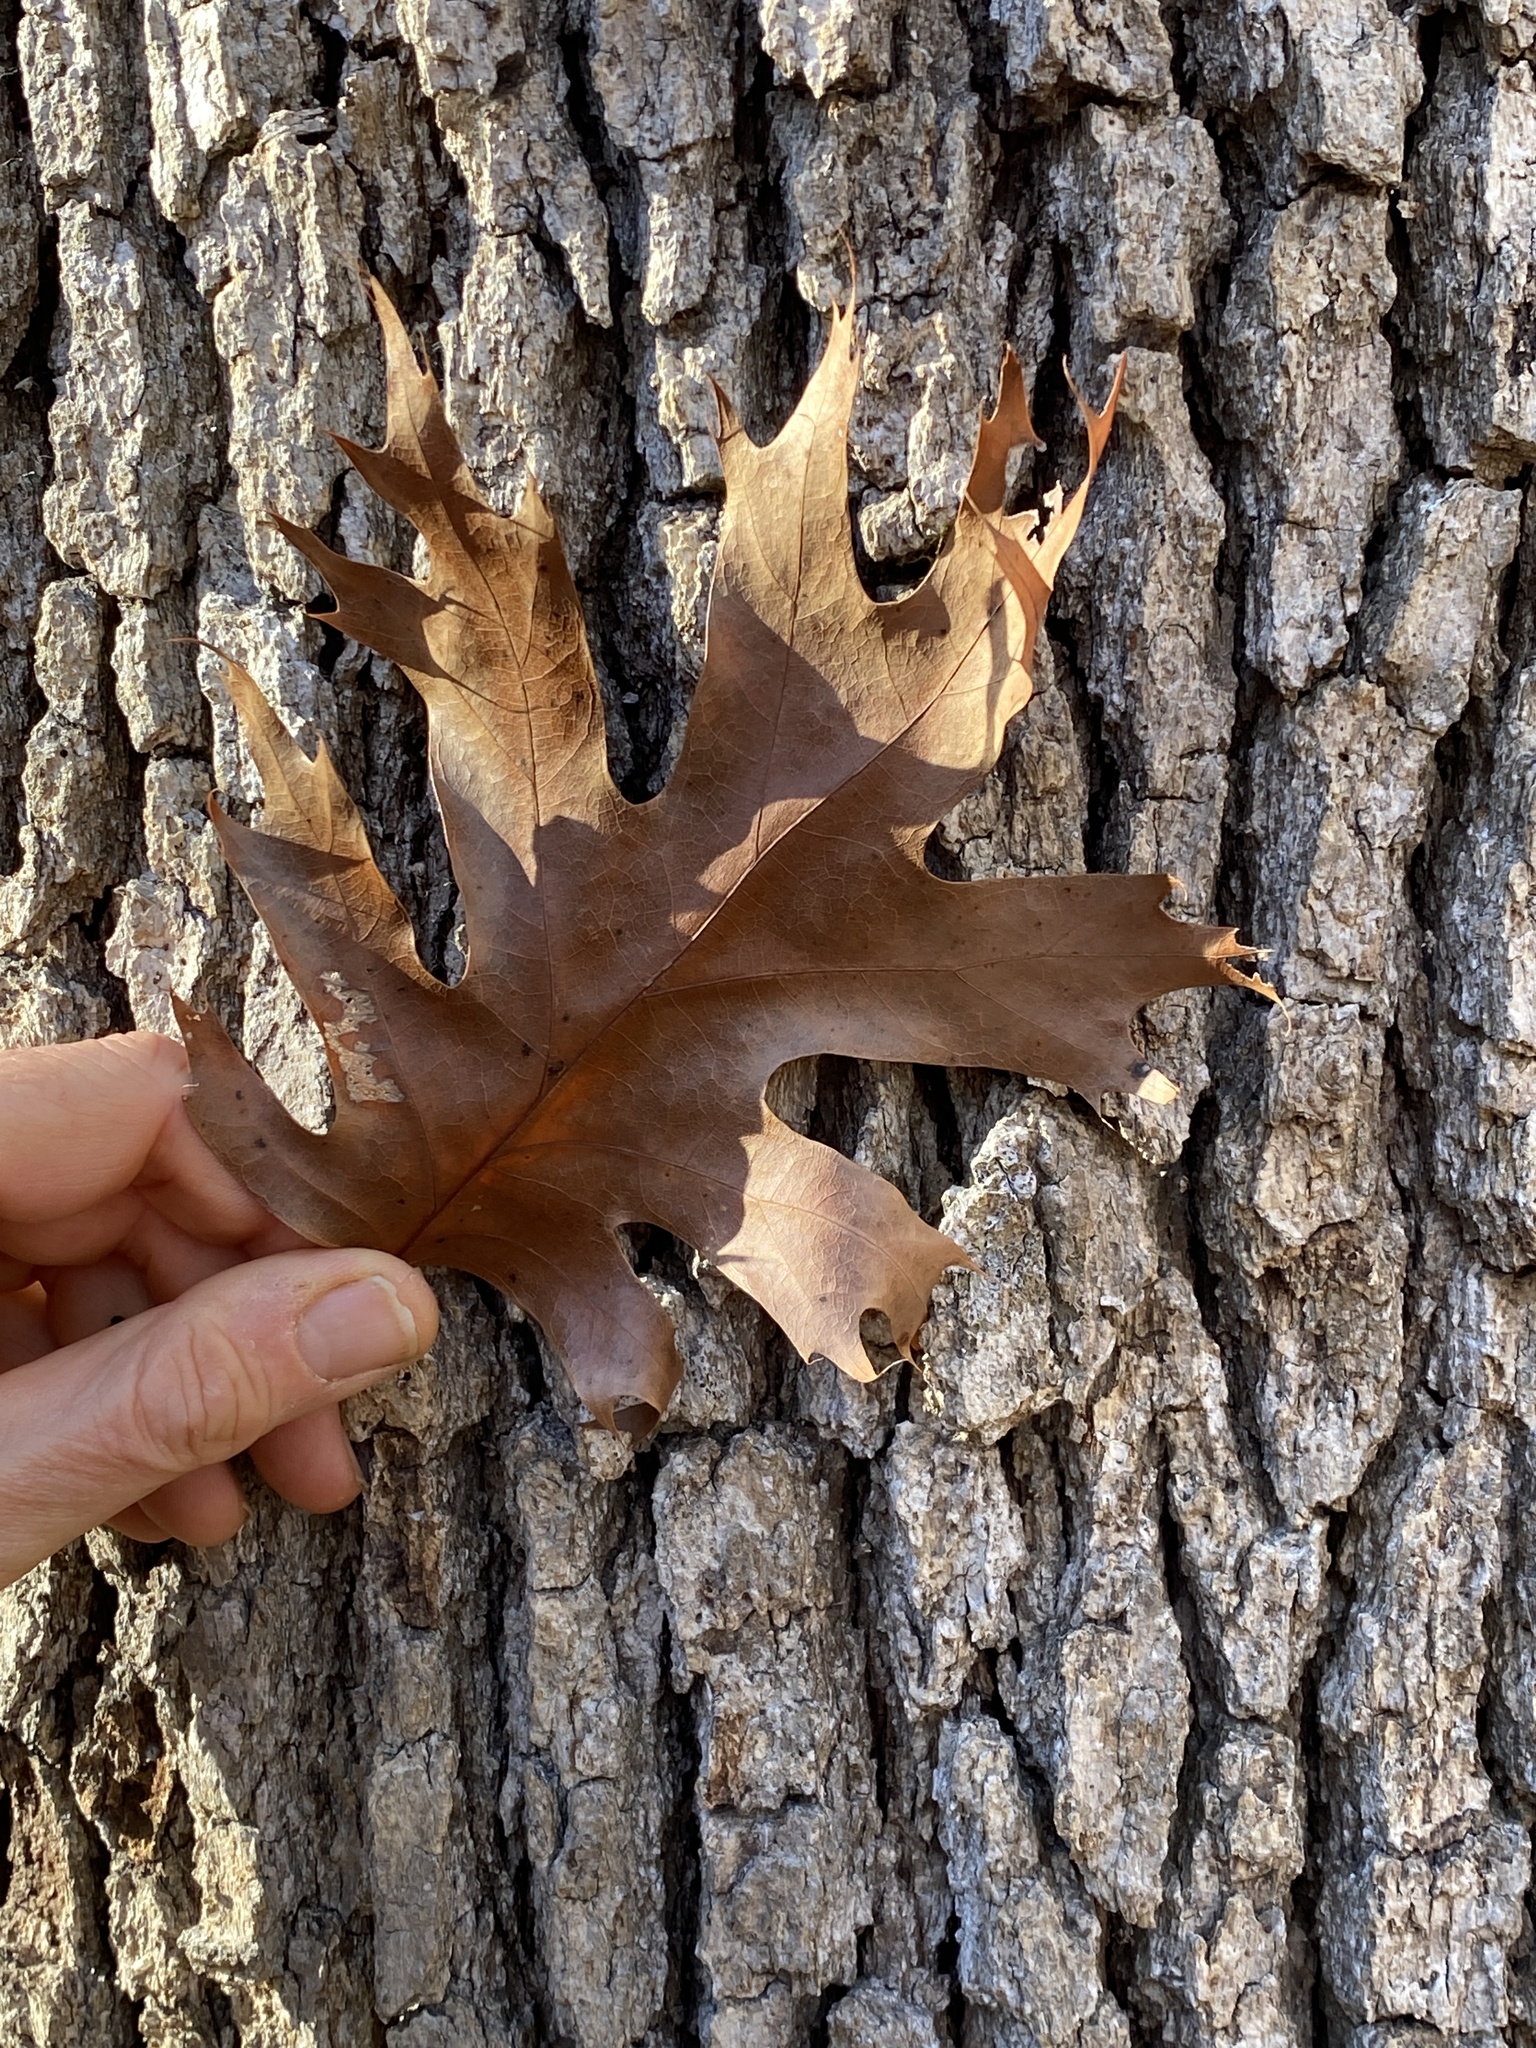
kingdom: Plantae
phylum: Tracheophyta
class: Magnoliopsida
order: Fagales
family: Fagaceae
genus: Quercus
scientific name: Quercus alba
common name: White oak
